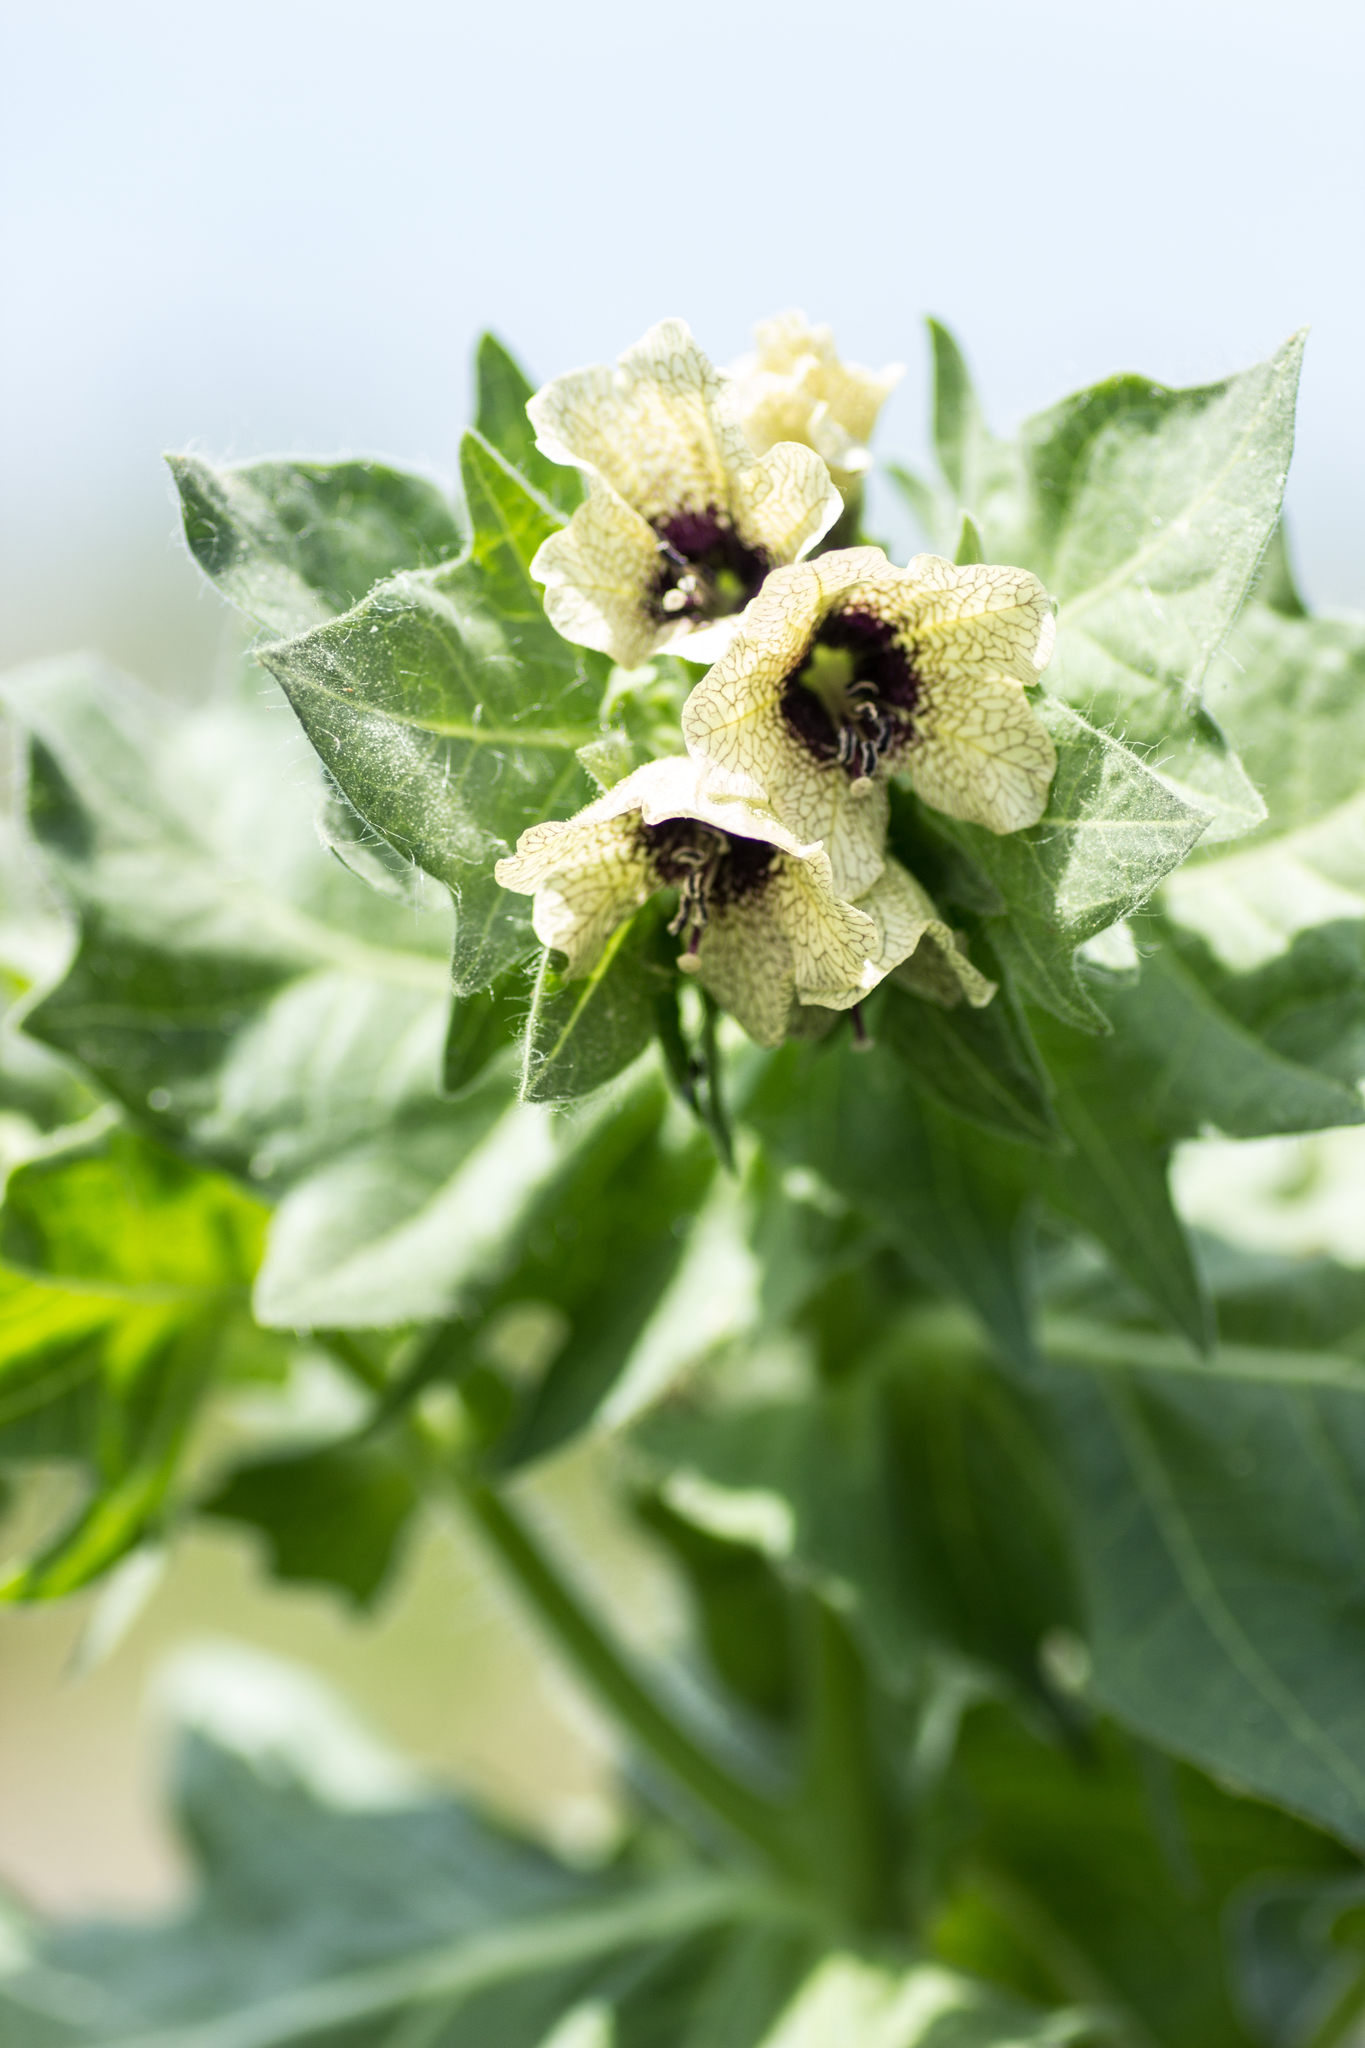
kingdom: Plantae
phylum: Tracheophyta
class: Magnoliopsida
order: Solanales
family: Solanaceae
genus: Hyoscyamus
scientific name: Hyoscyamus niger
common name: Henbane
